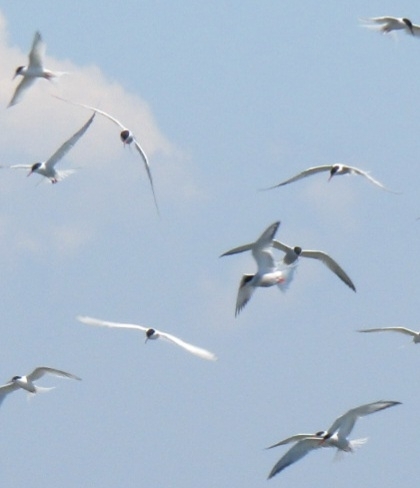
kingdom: Animalia
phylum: Chordata
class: Aves
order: Charadriiformes
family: Laridae
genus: Sterna
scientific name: Sterna hirundo
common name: Common tern
